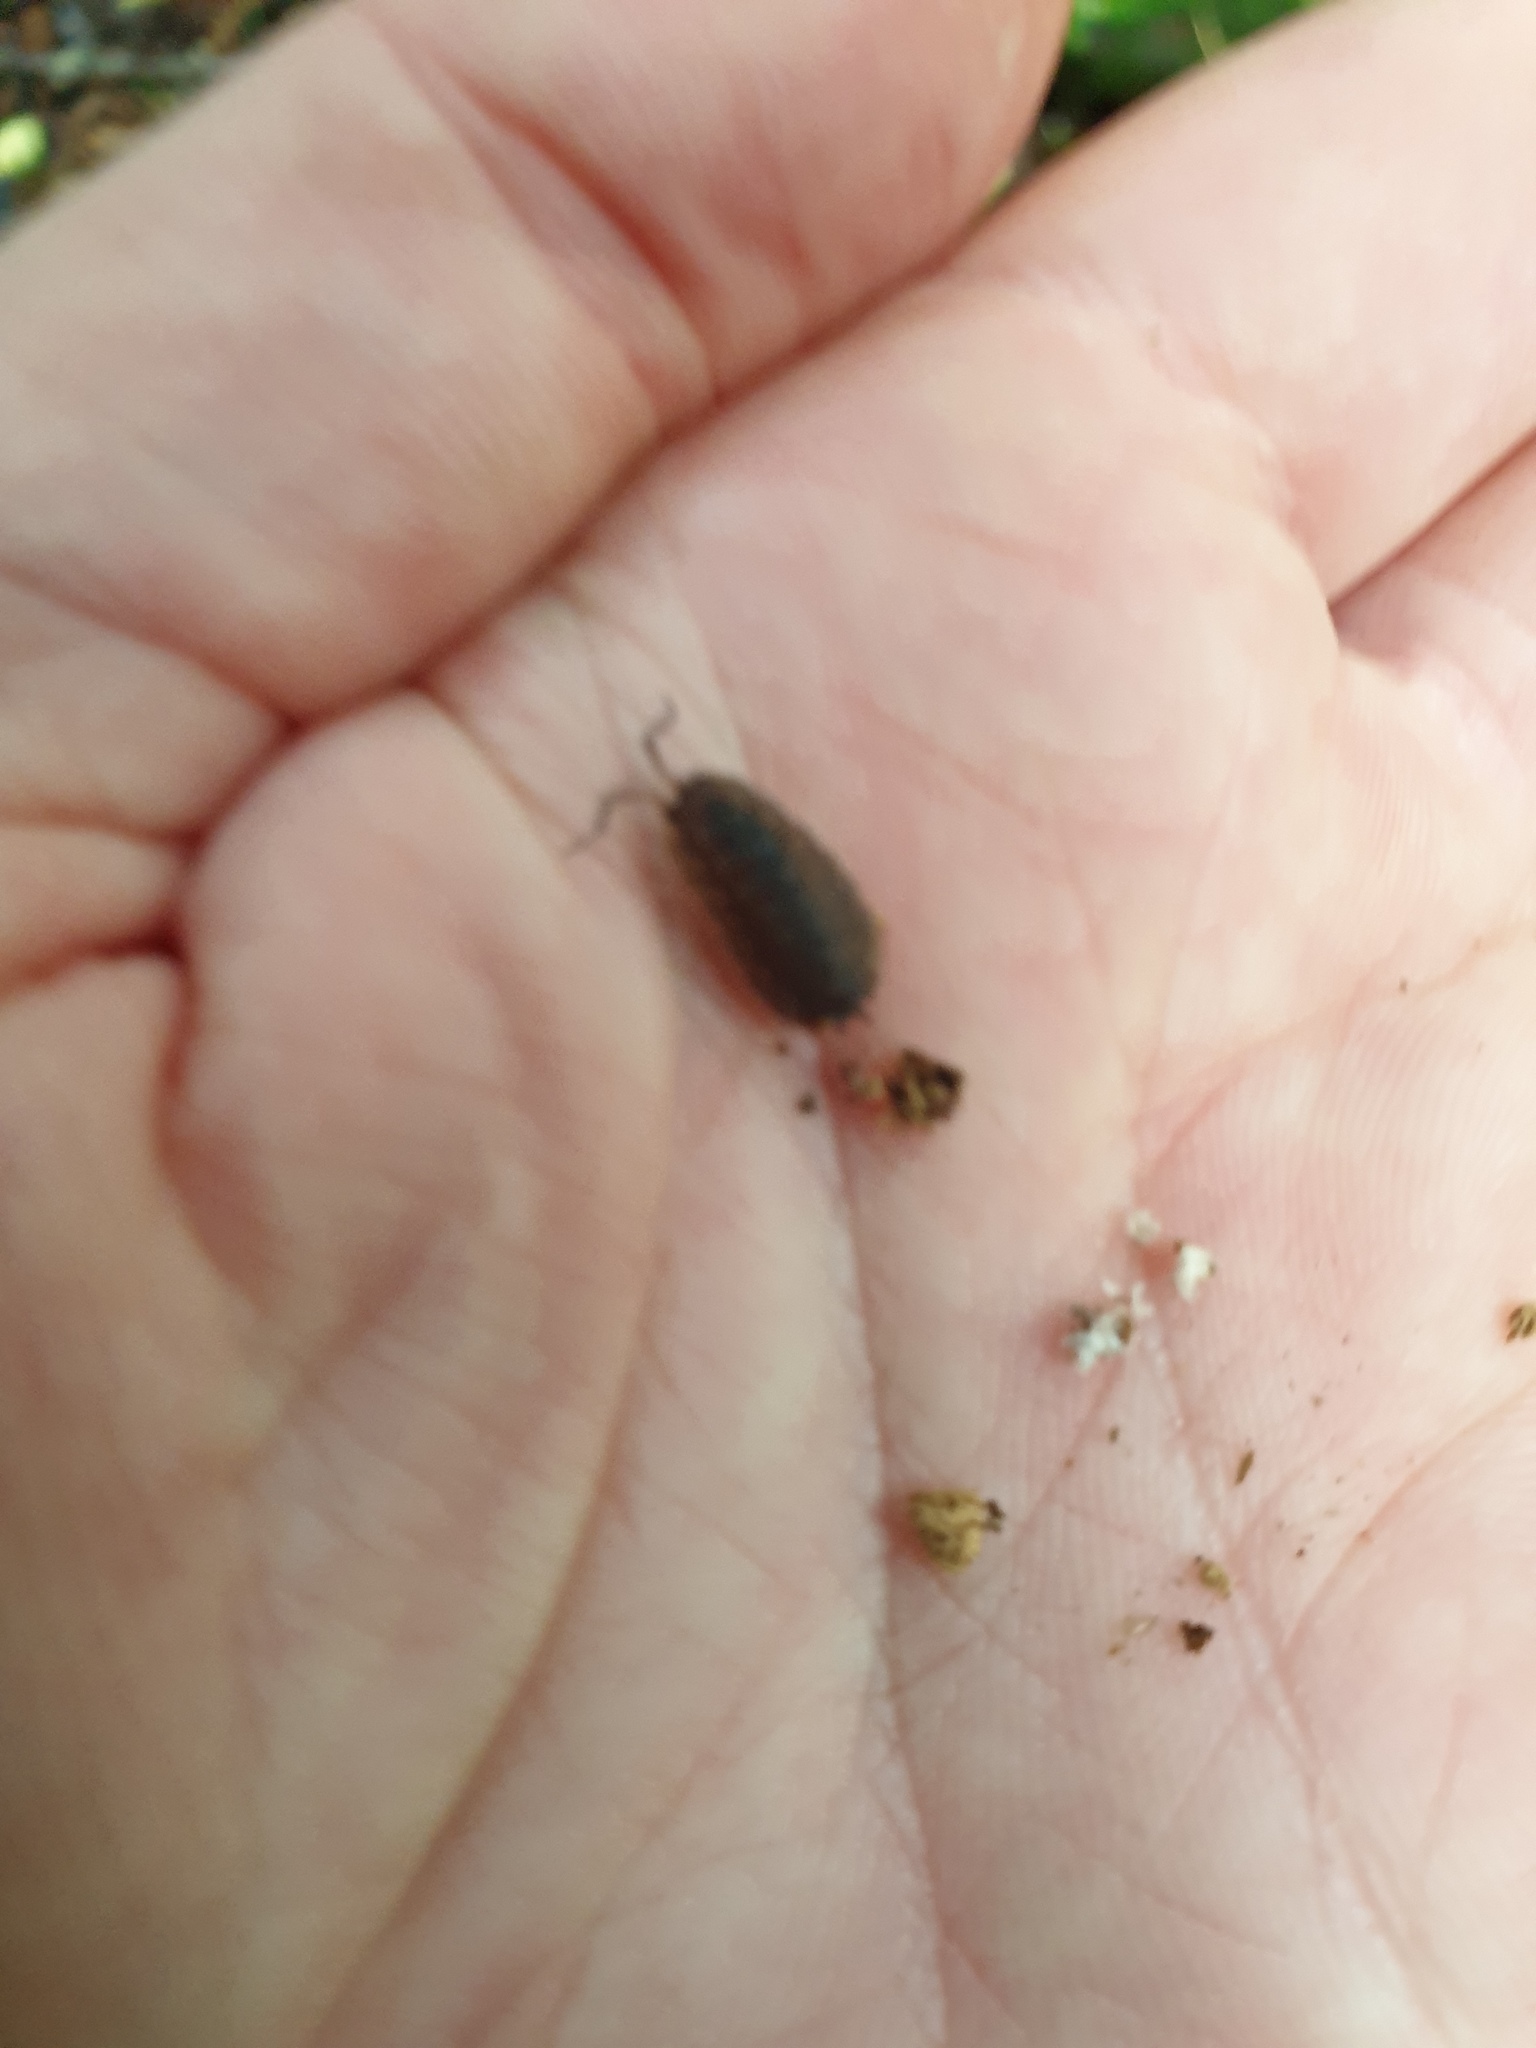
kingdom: Animalia
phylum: Arthropoda
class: Malacostraca
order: Isopoda
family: Porcellionidae
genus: Porcellio
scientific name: Porcellio scaber
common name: Common rough woodlouse
